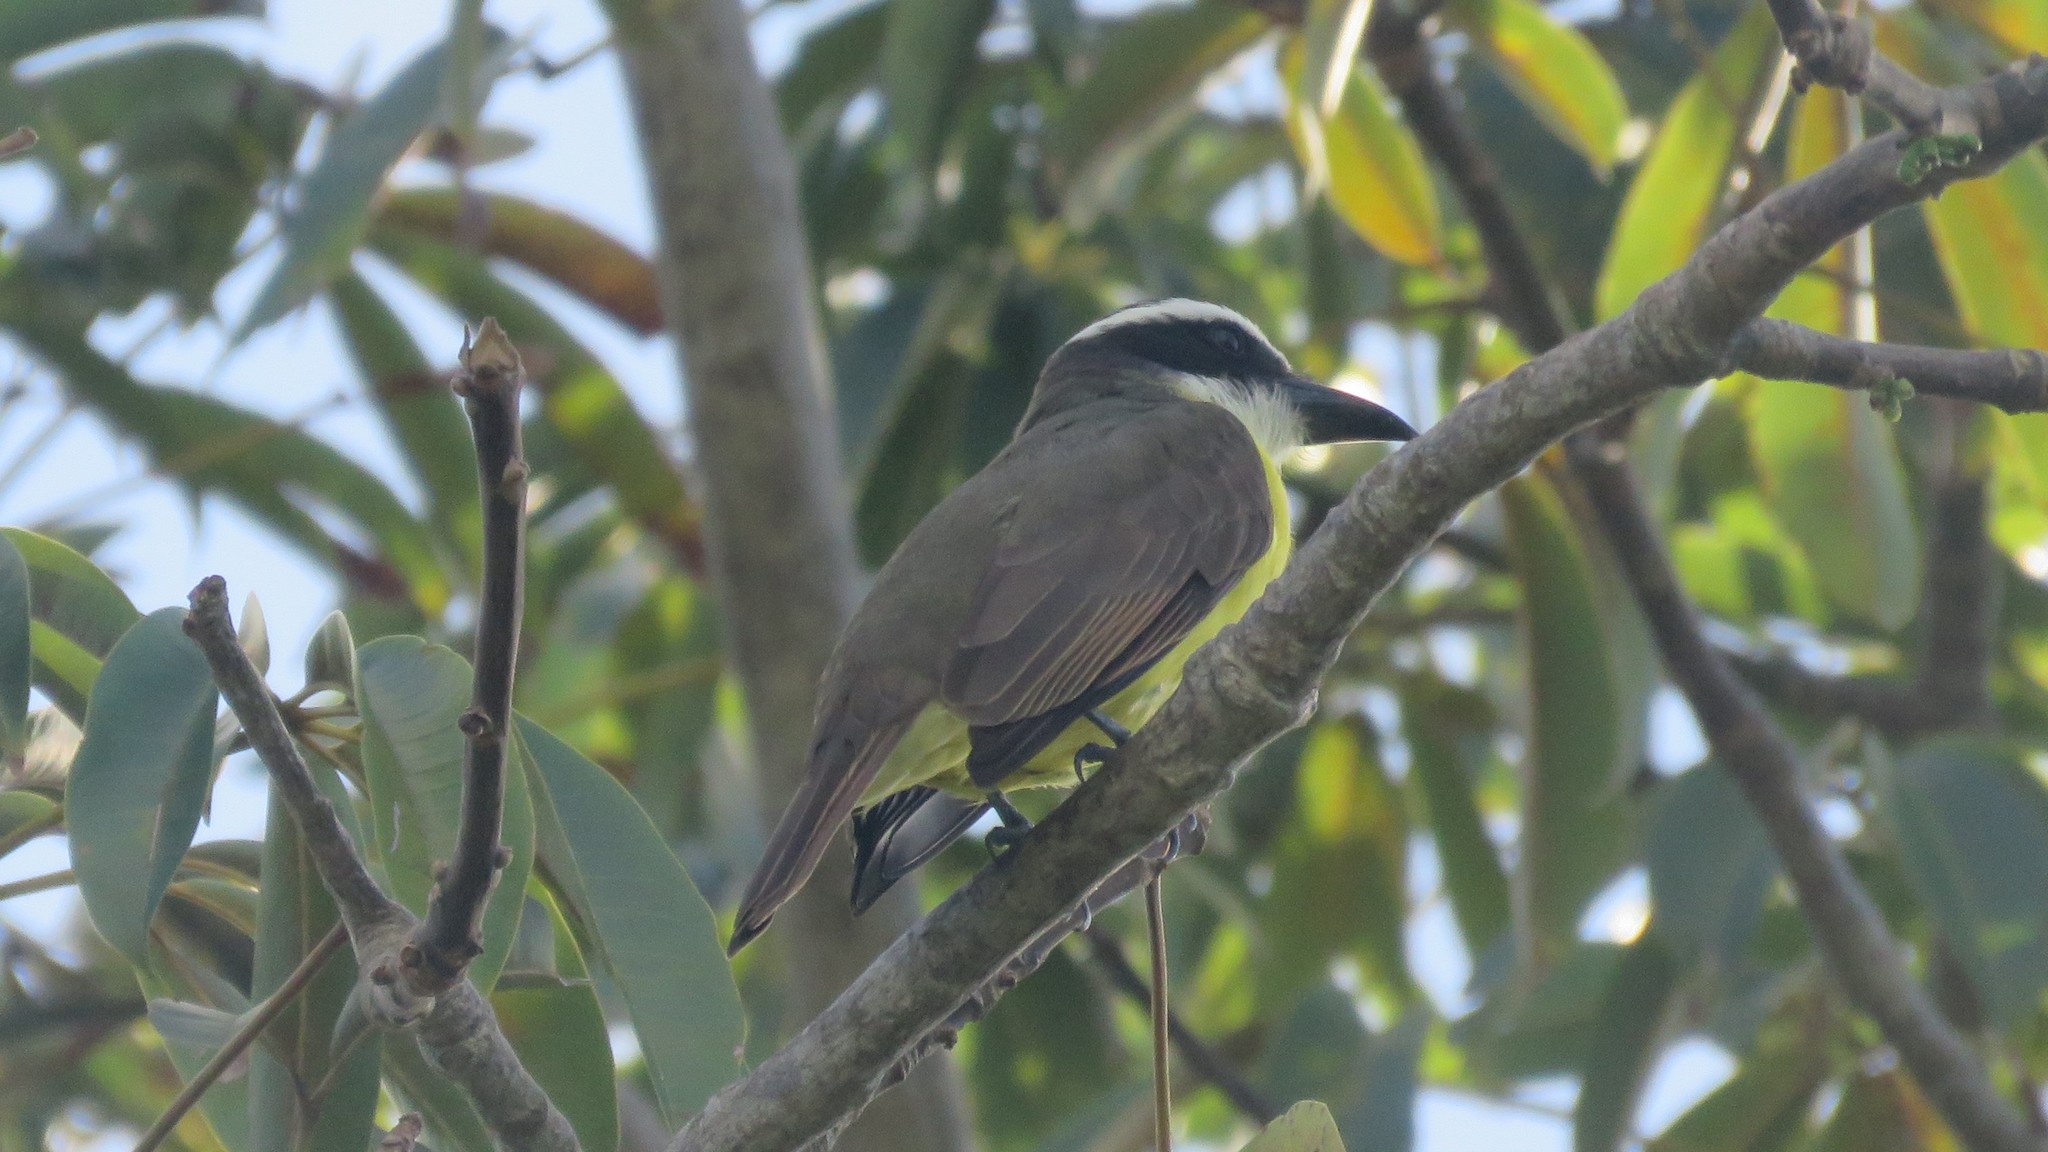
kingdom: Animalia
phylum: Chordata
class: Aves
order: Passeriformes
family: Tyrannidae
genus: Megarynchus
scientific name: Megarynchus pitangua
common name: Boat-billed flycatcher
